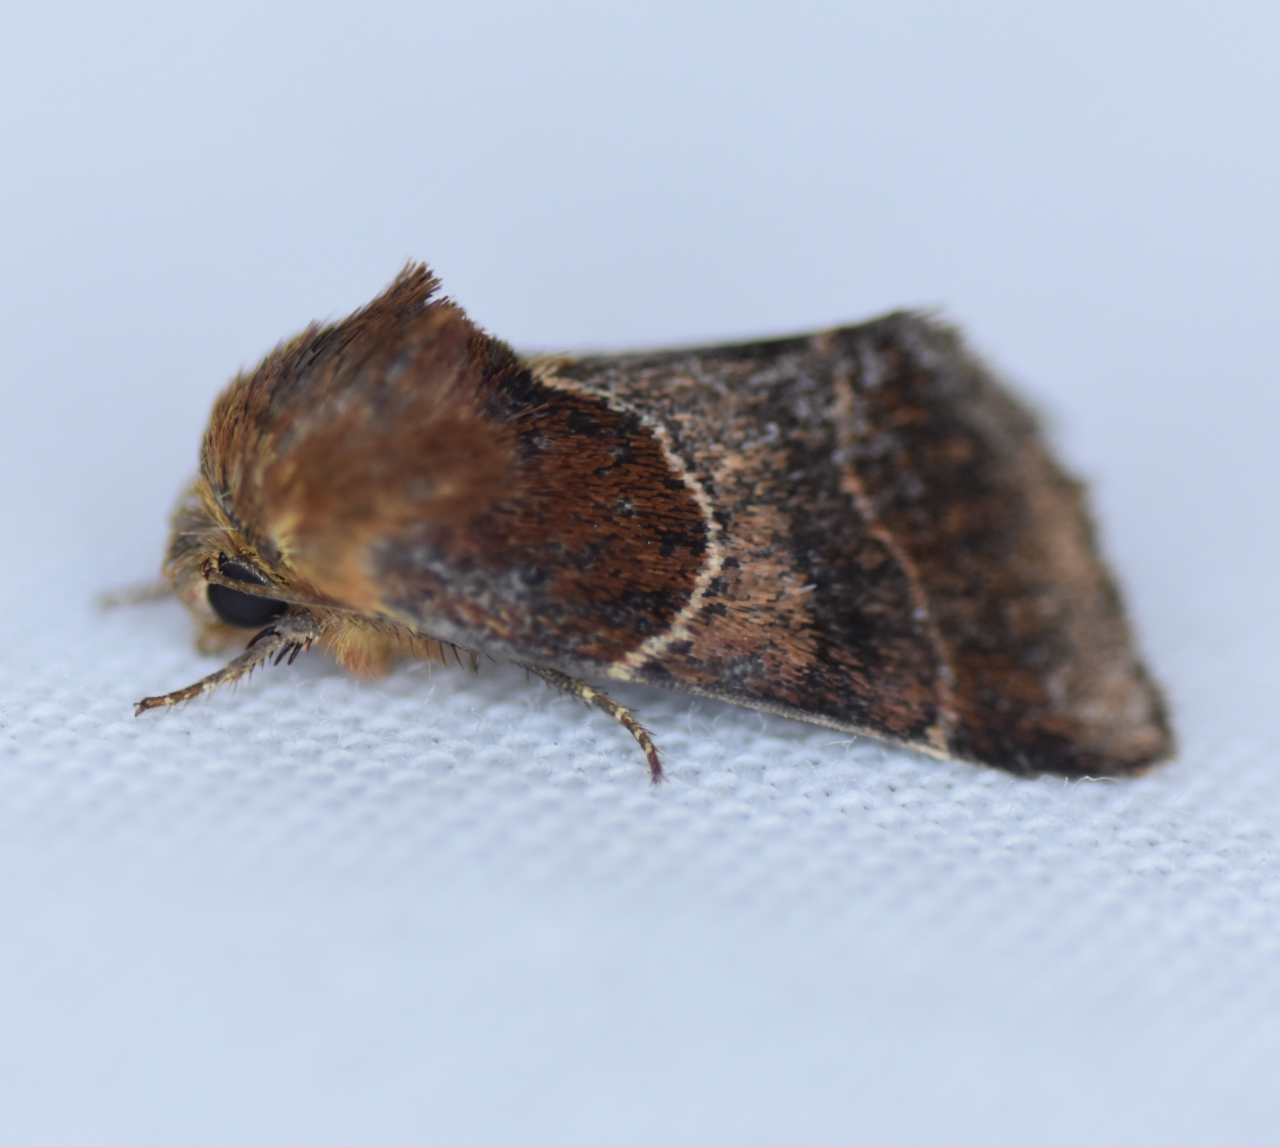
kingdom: Animalia
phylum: Arthropoda
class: Insecta
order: Lepidoptera
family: Noctuidae
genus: Schinia
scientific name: Schinia arcigera
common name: Arcigera flower moth
